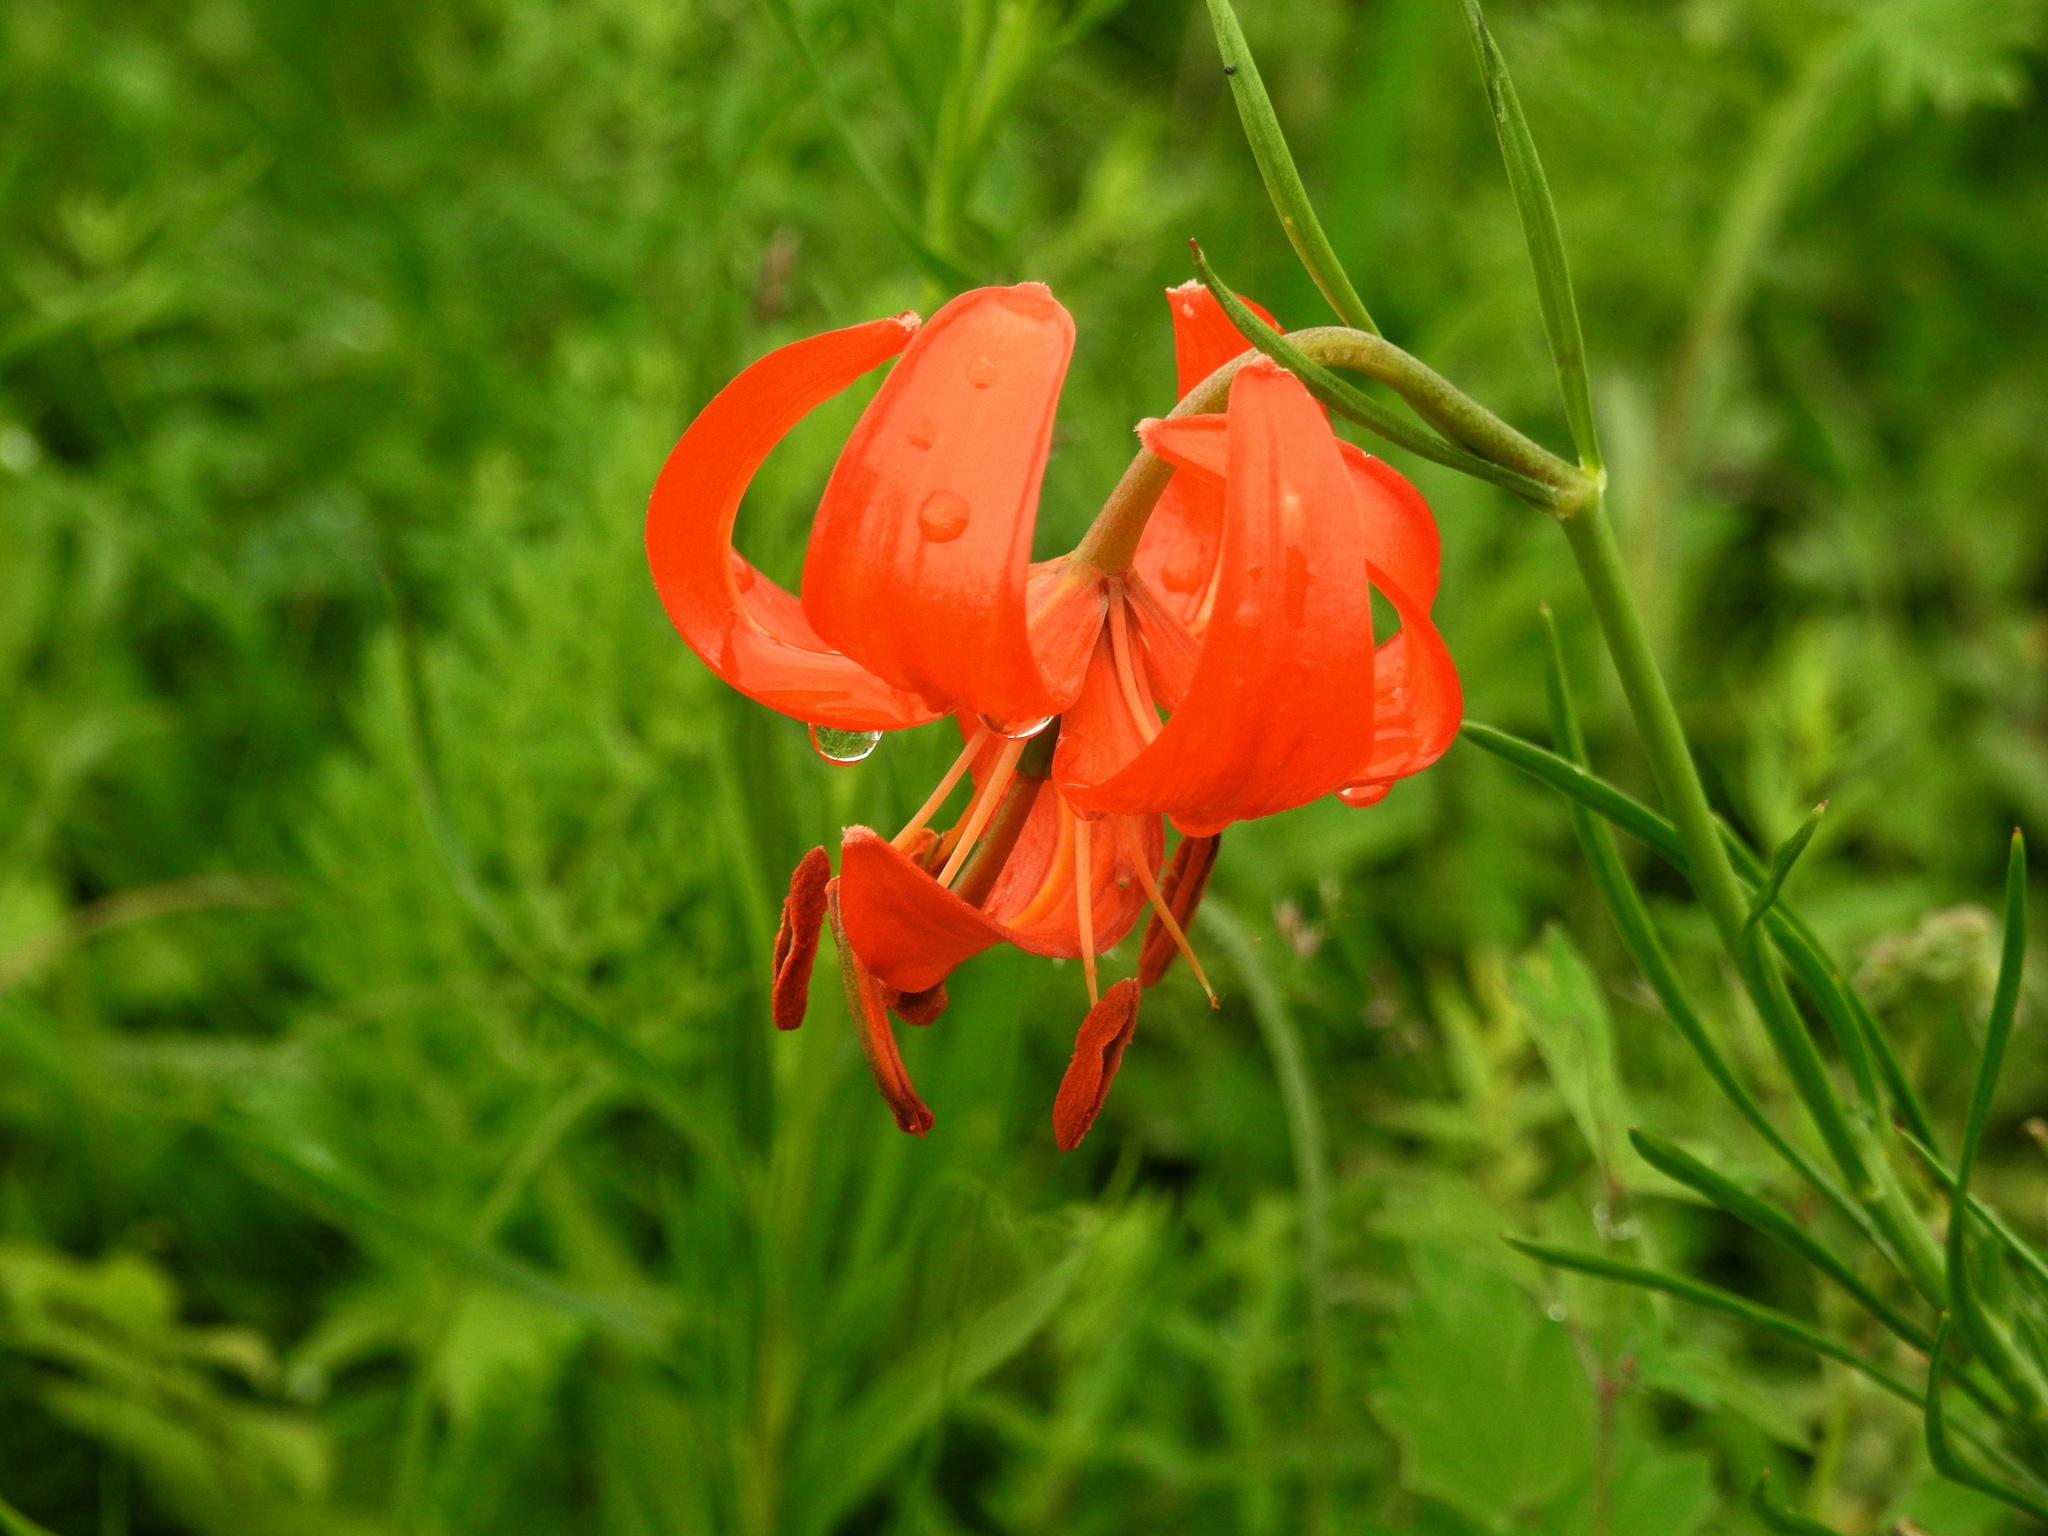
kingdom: Plantae
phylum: Tracheophyta
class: Liliopsida
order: Liliales
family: Liliaceae
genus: Lilium
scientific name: Lilium pumilum
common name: Coral lily
